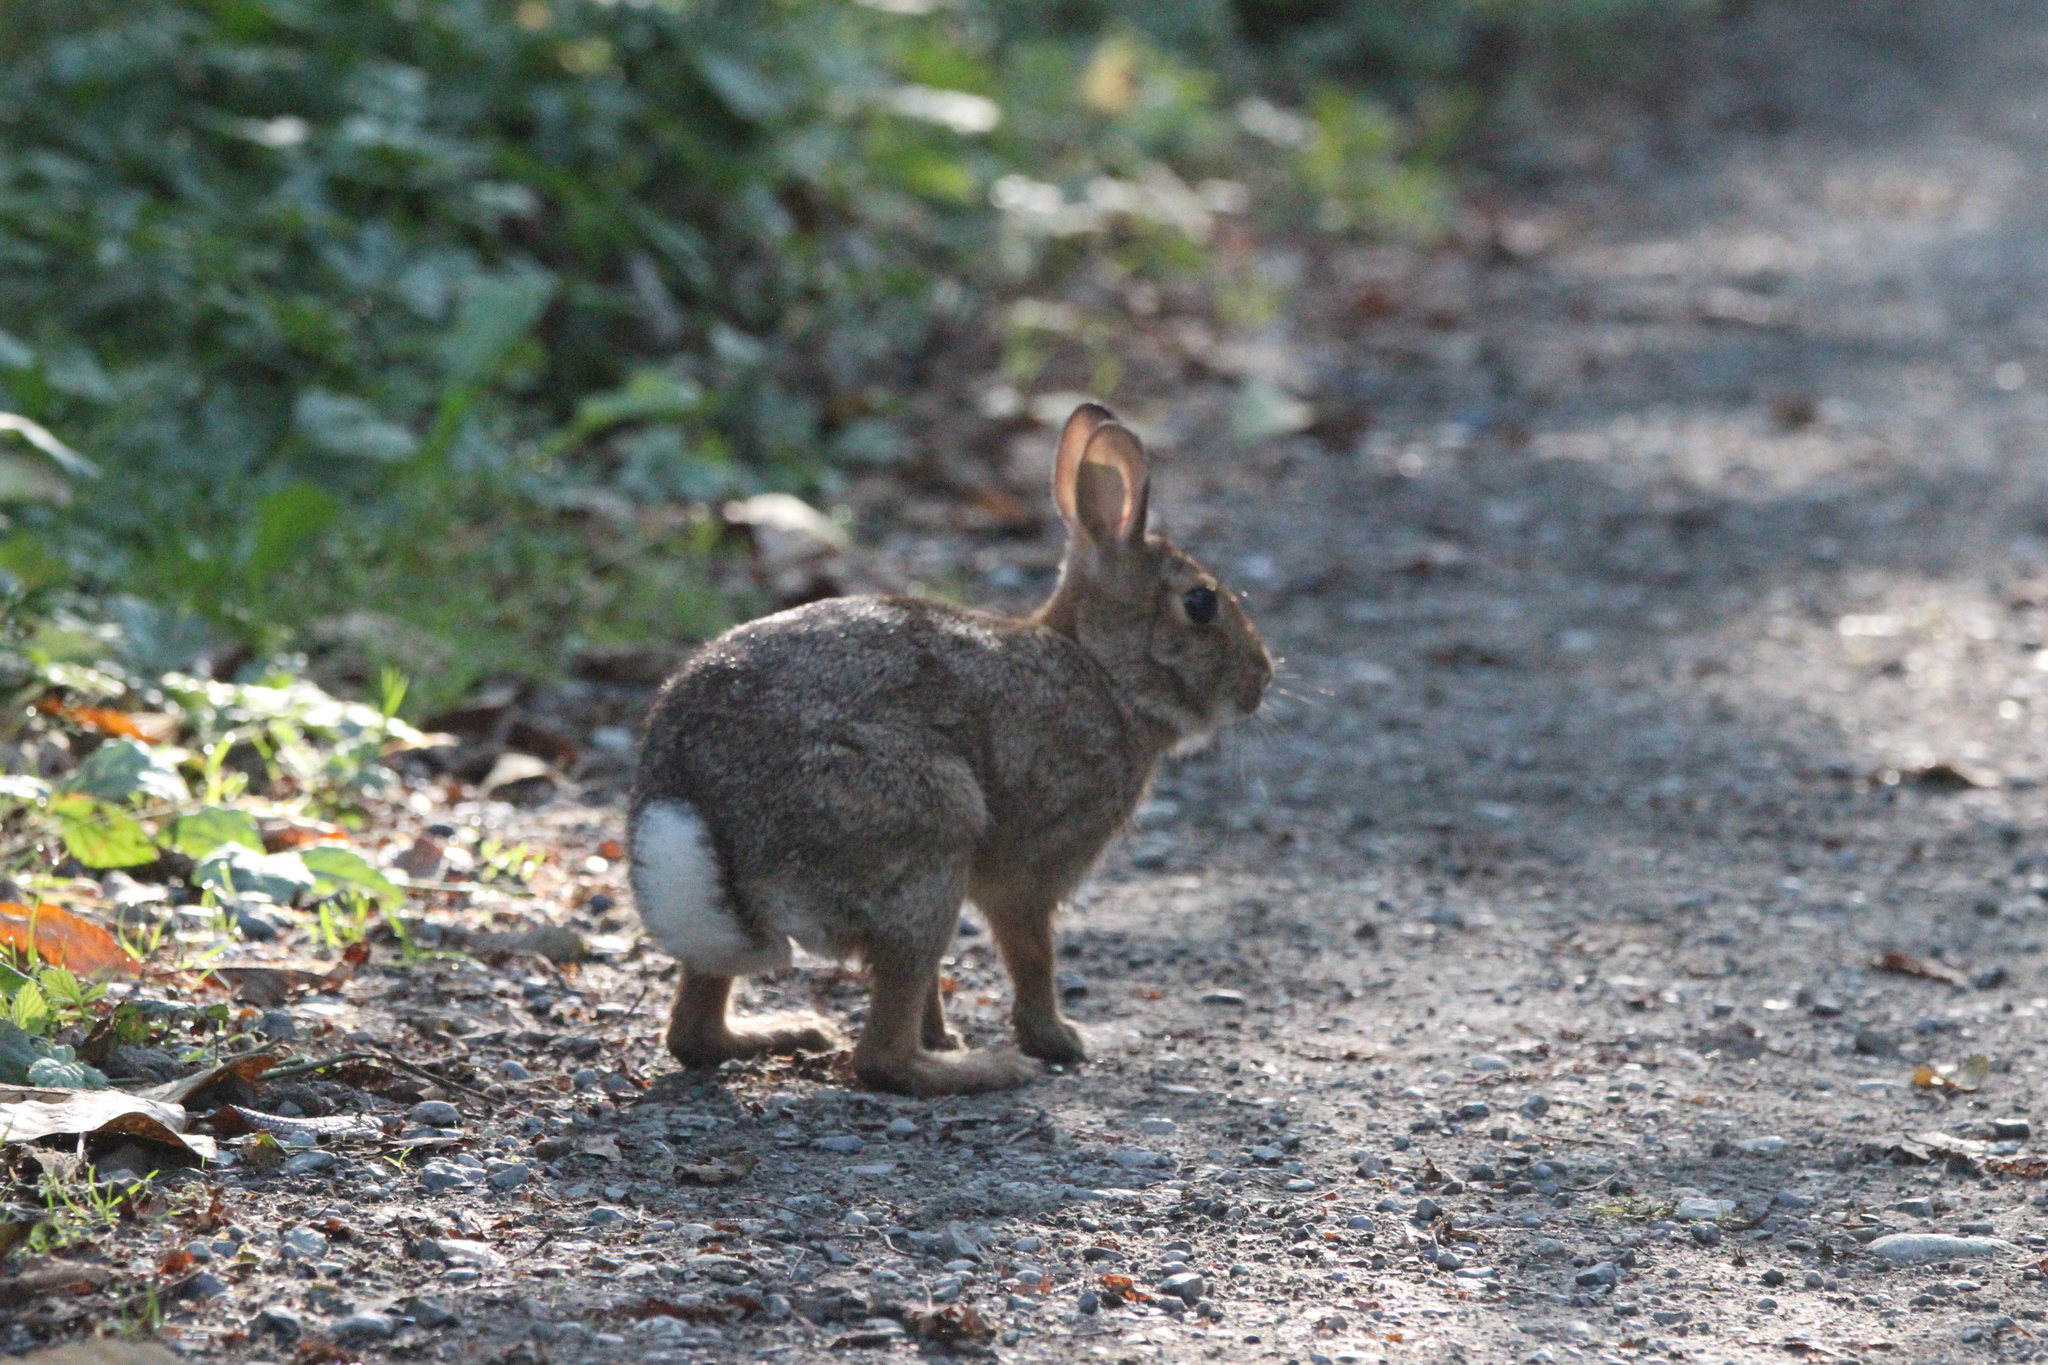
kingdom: Animalia
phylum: Chordata
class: Mammalia
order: Lagomorpha
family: Leporidae
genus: Sylvilagus
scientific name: Sylvilagus floridanus
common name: Eastern cottontail
